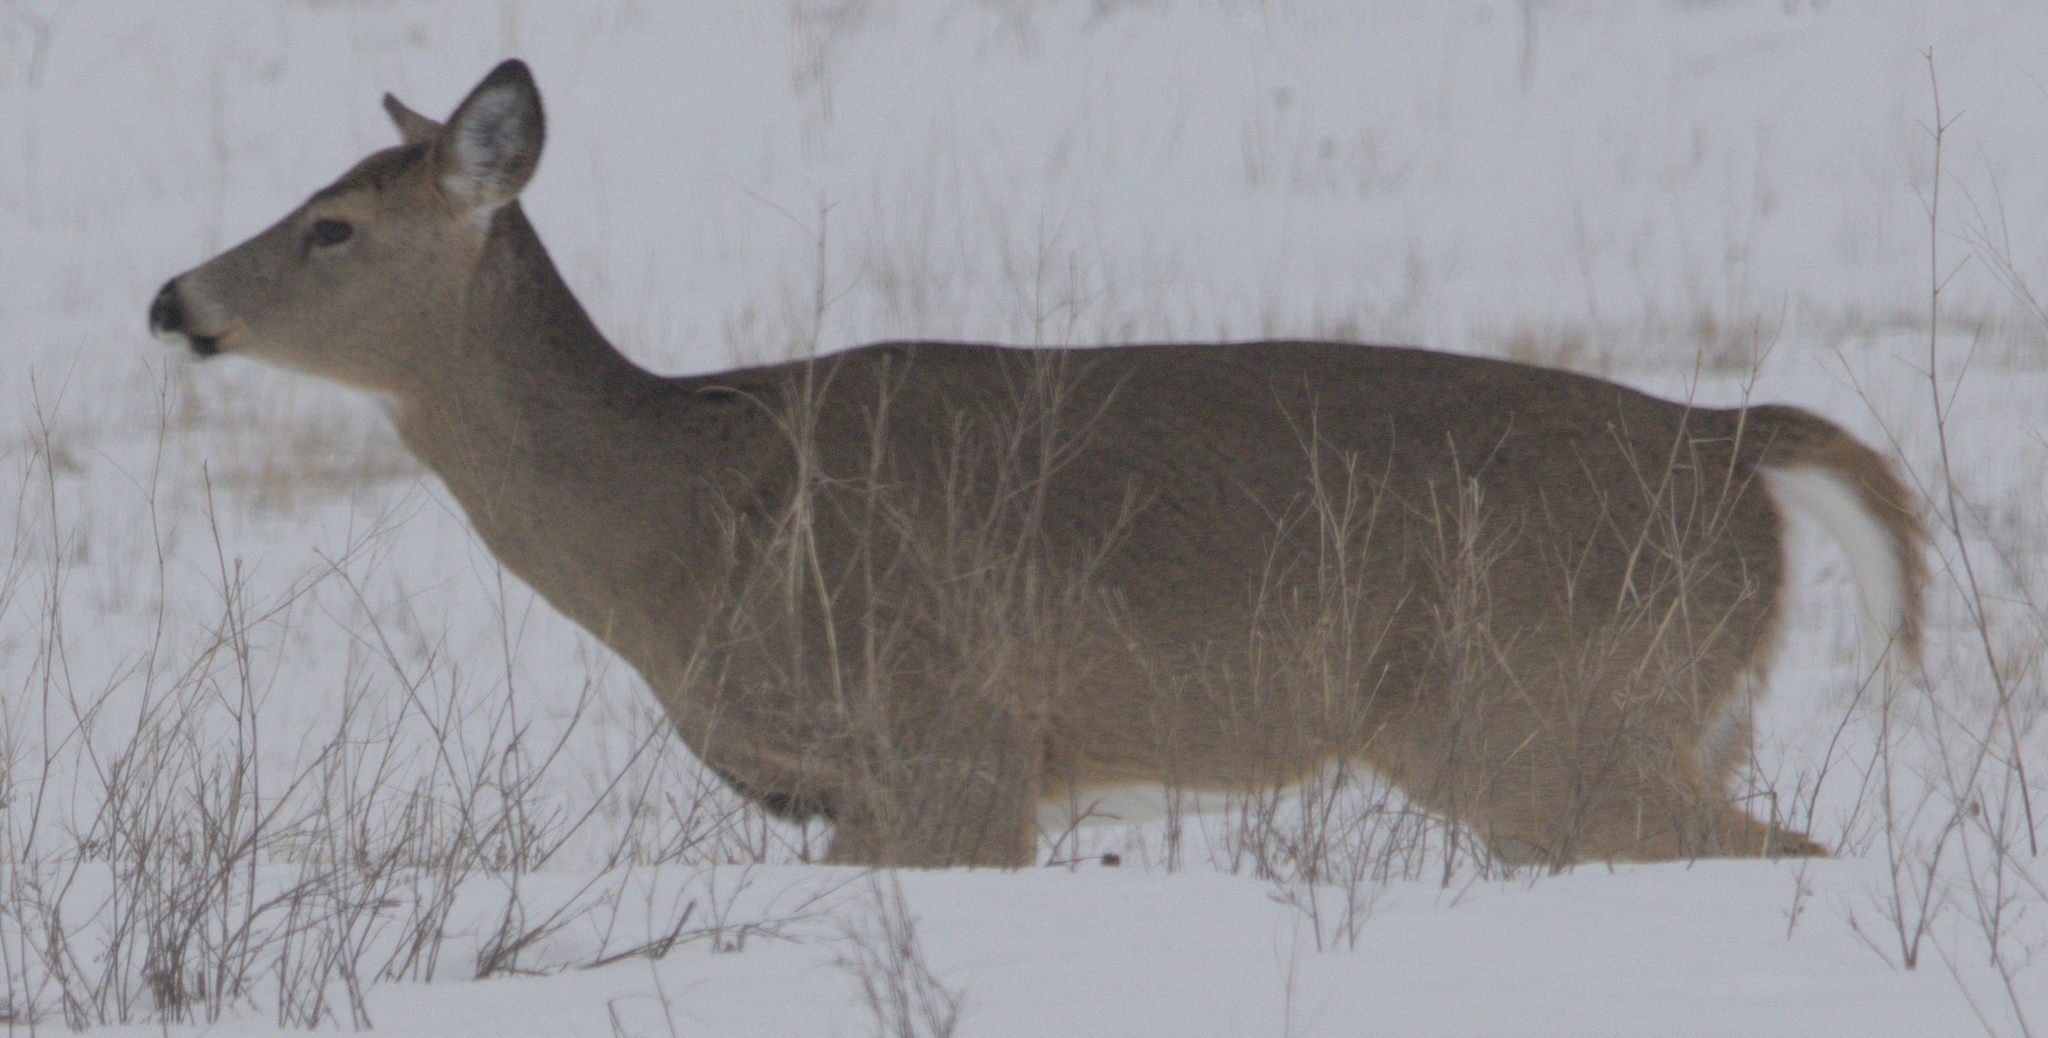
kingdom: Animalia
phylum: Chordata
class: Mammalia
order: Artiodactyla
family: Cervidae
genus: Odocoileus
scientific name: Odocoileus virginianus
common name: White-tailed deer
